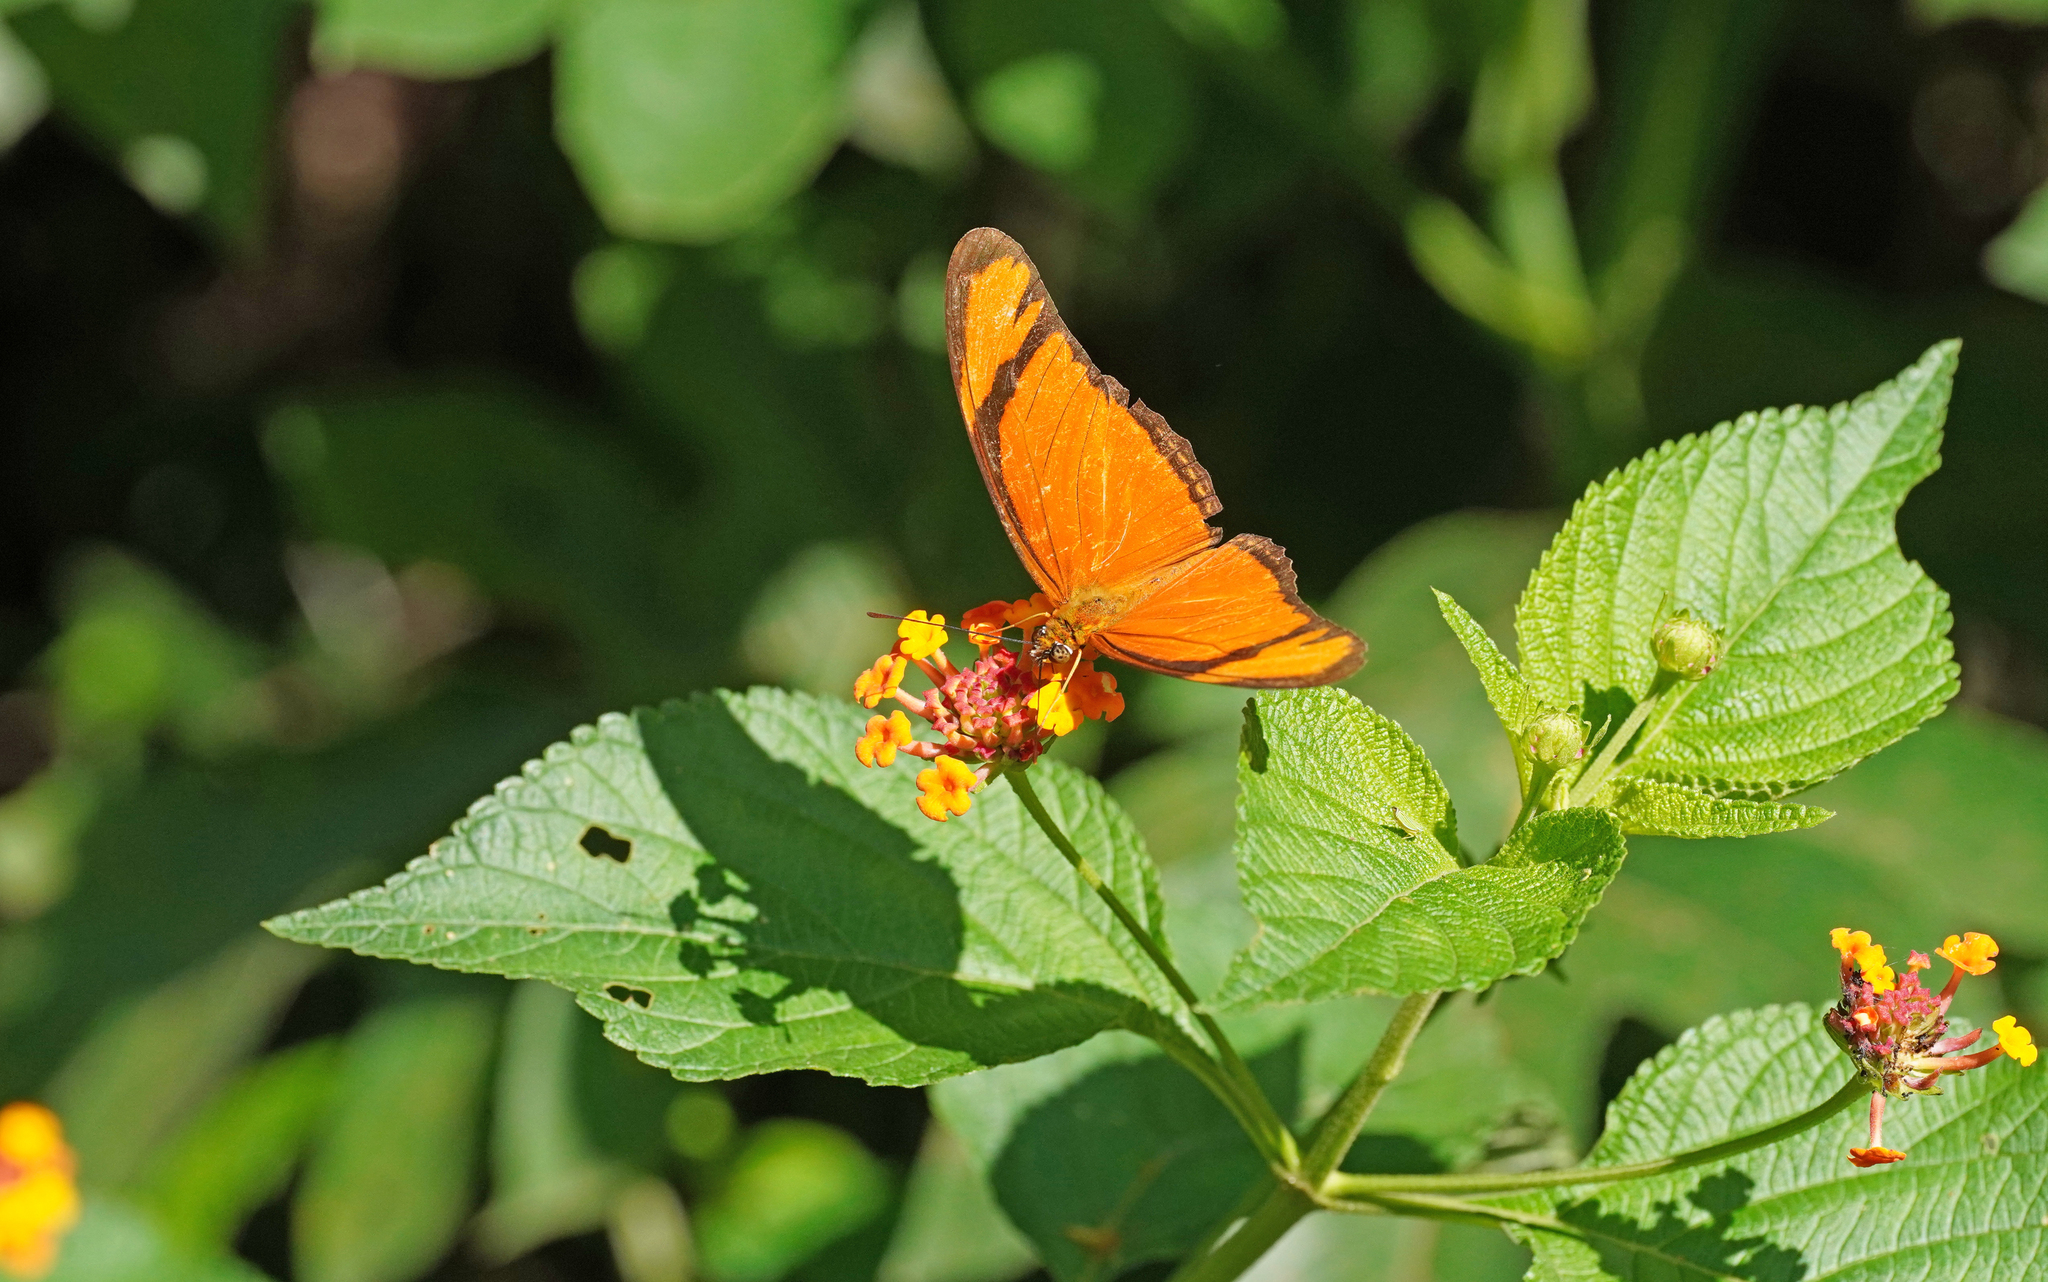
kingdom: Animalia
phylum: Arthropoda
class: Insecta
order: Lepidoptera
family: Nymphalidae
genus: Dryas
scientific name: Dryas iulia
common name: Flambeau
